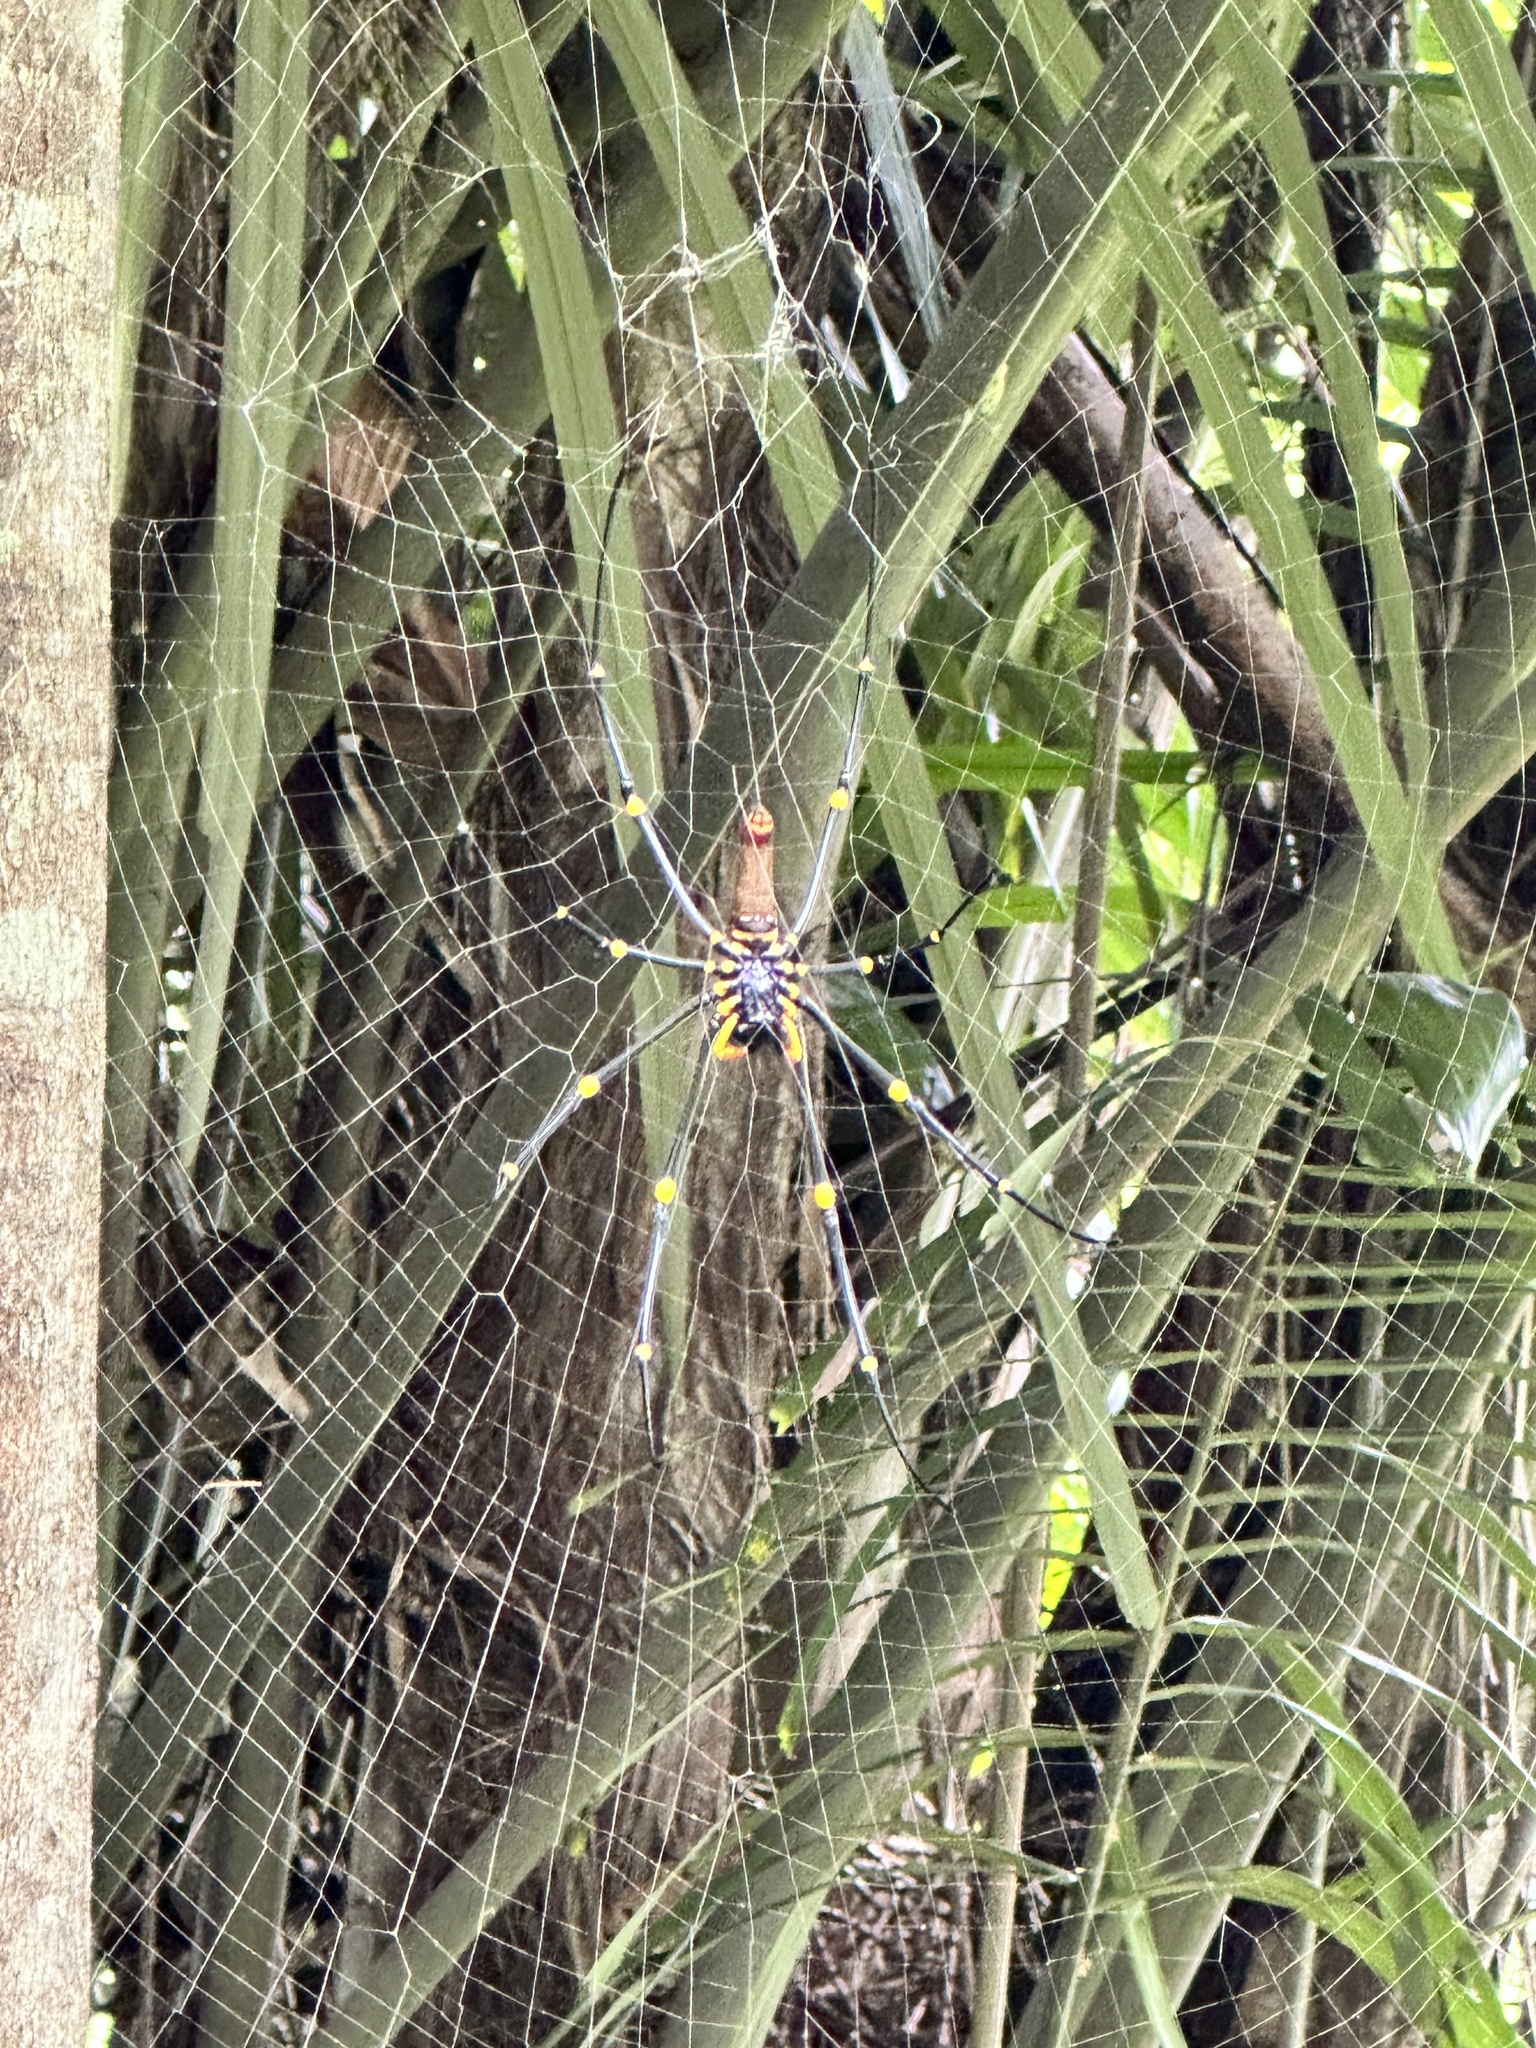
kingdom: Animalia
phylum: Arthropoda
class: Arachnida
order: Araneae
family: Araneidae
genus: Nephila
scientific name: Nephila pilipes
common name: Giant golden orb weaver
